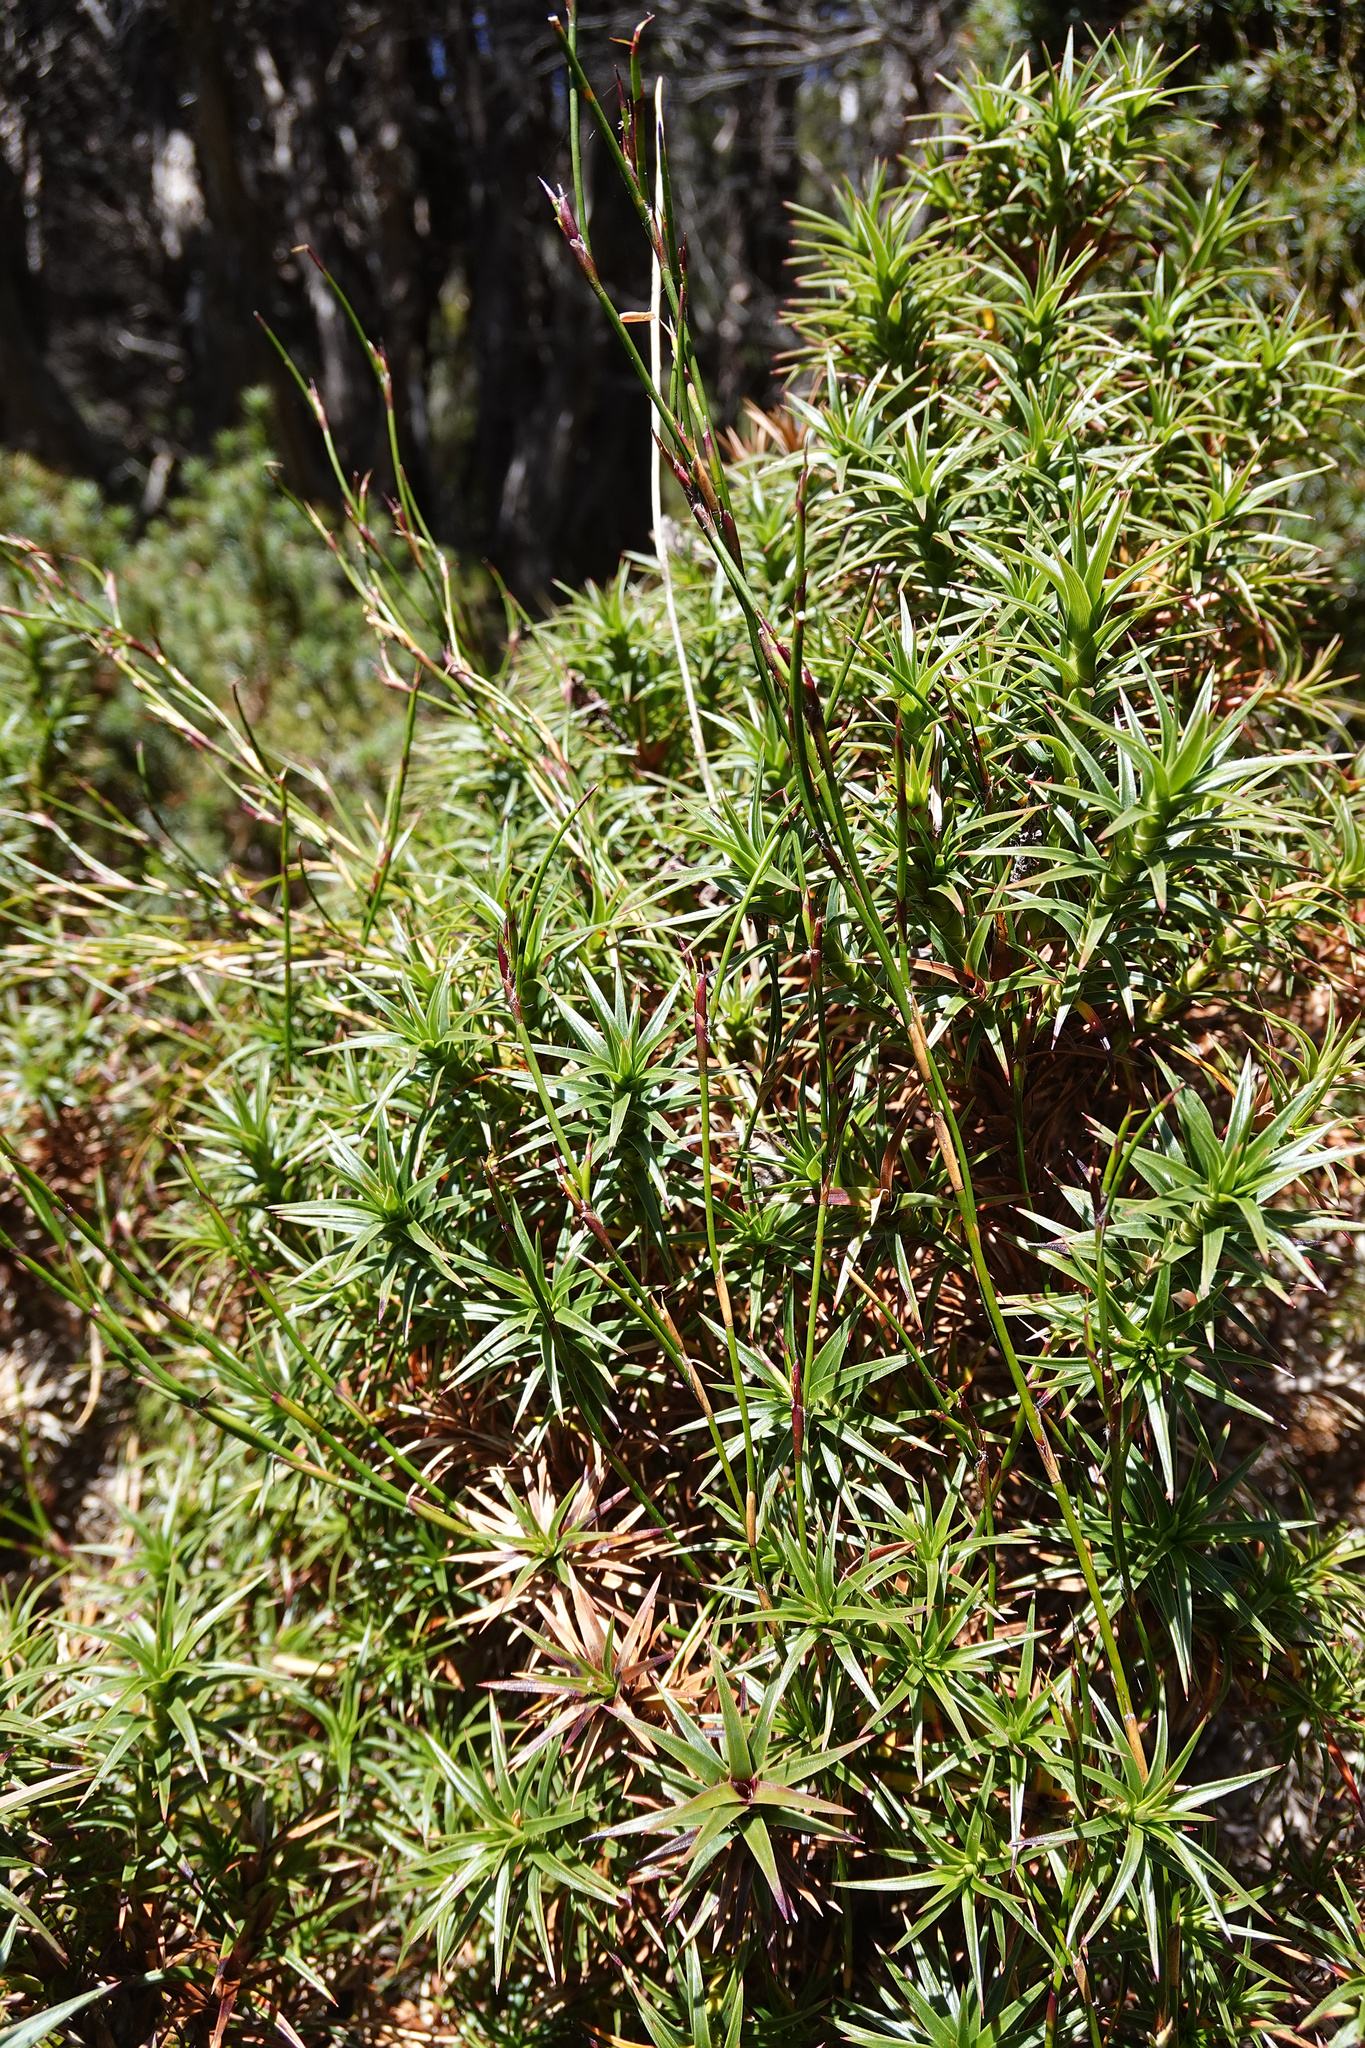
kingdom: Plantae
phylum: Tracheophyta
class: Liliopsida
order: Poales
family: Restionaceae
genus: Empodisma
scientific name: Empodisma minus
